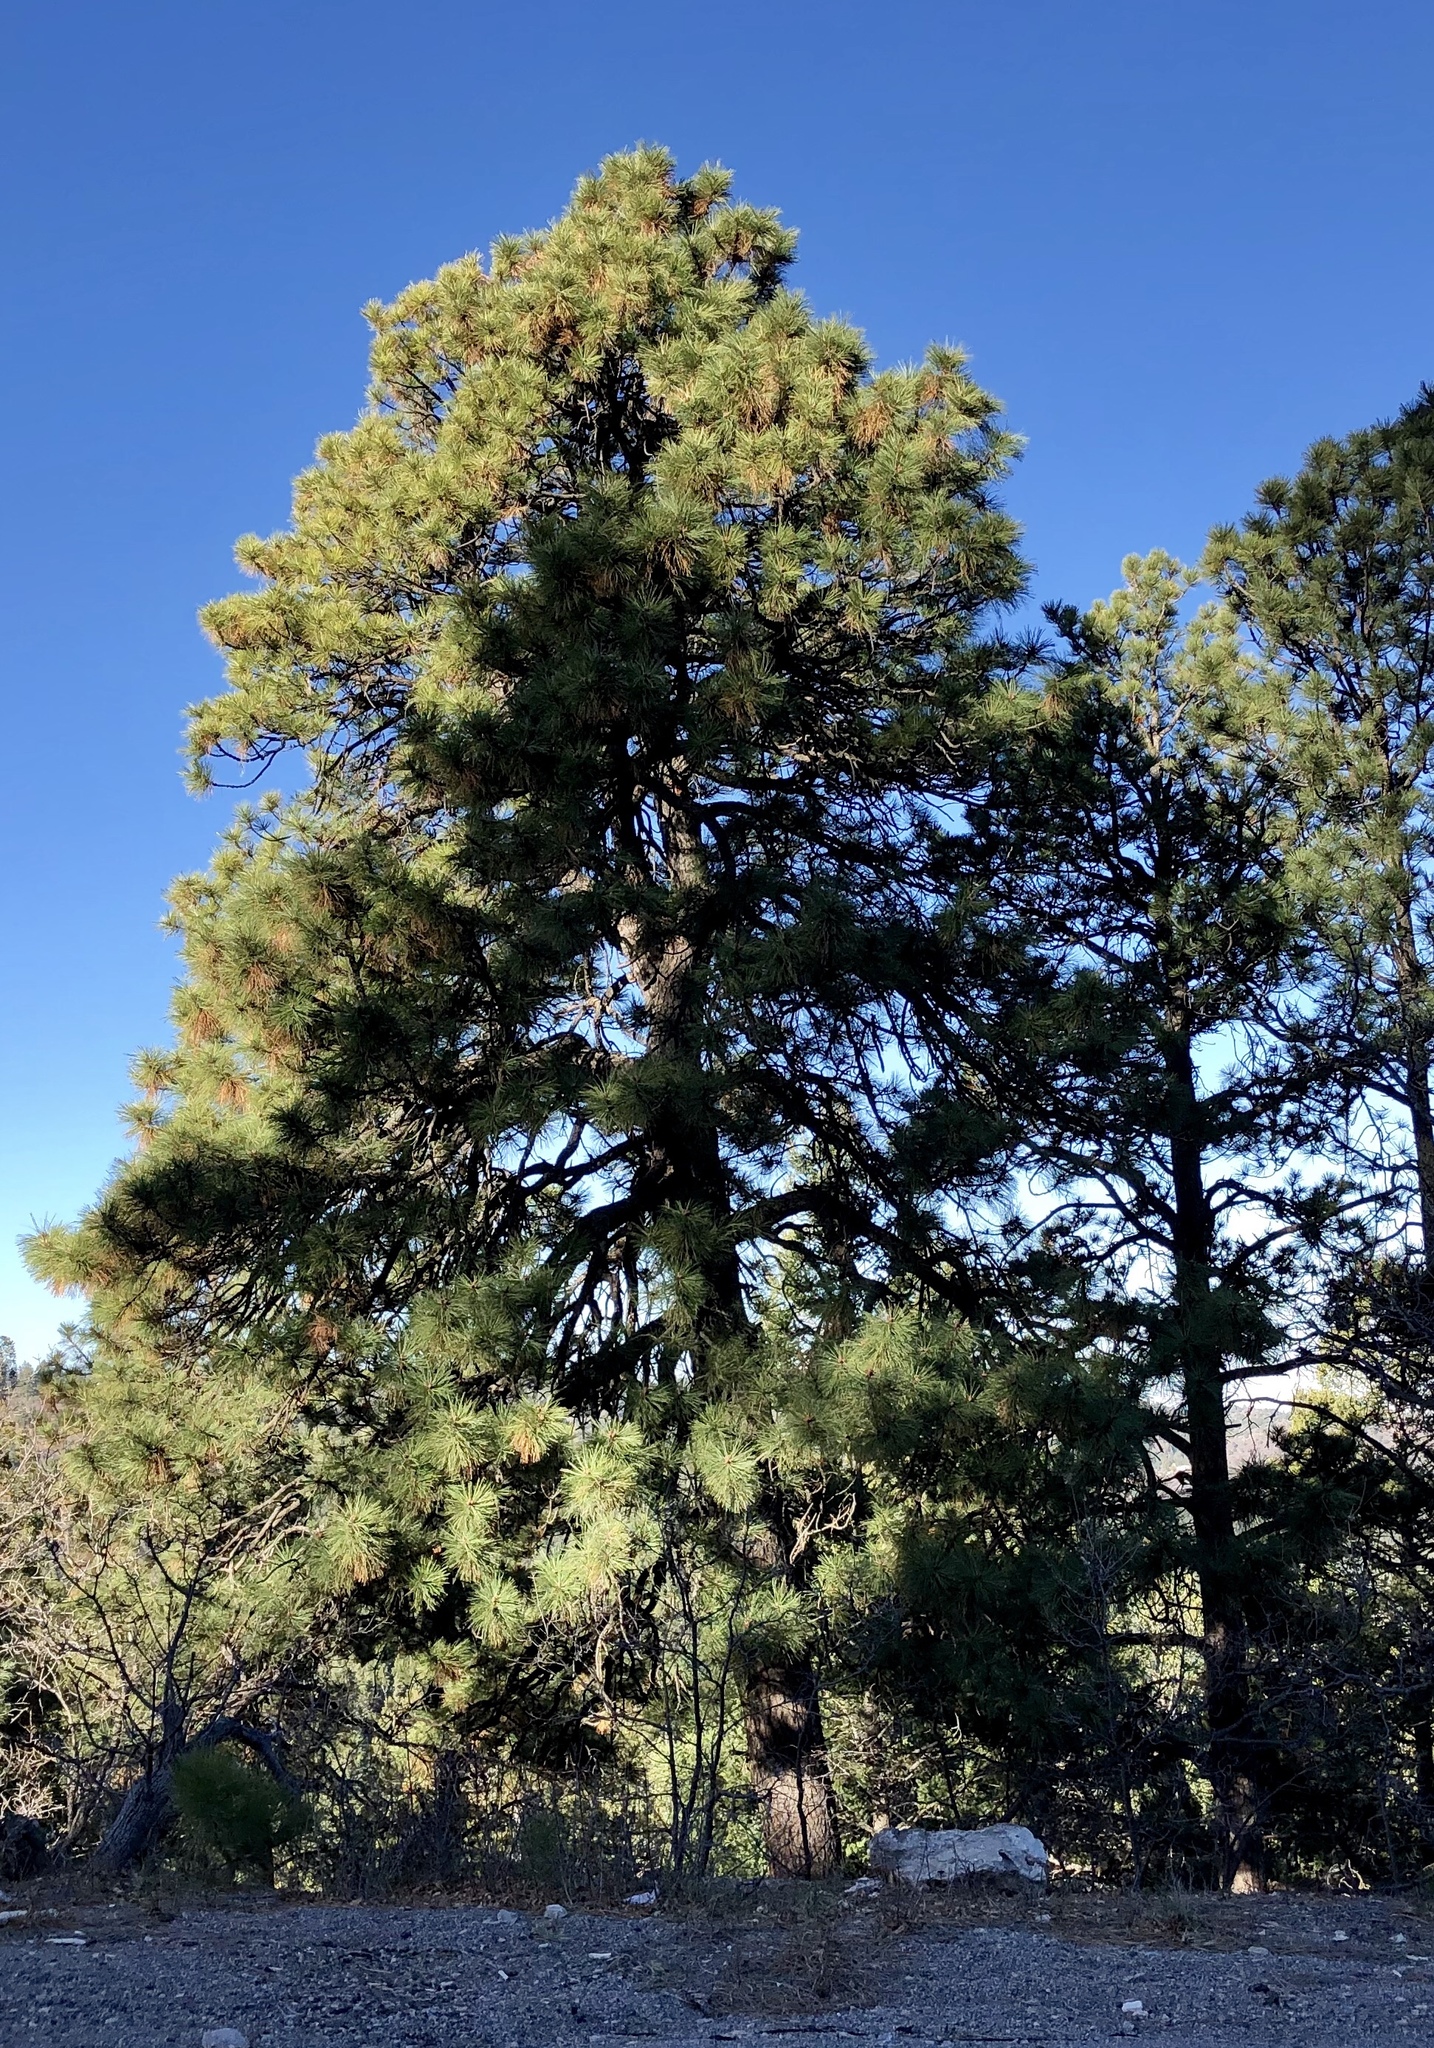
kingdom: Plantae
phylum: Tracheophyta
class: Pinopsida
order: Pinales
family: Pinaceae
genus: Pinus
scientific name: Pinus ponderosa
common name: Western yellow-pine
